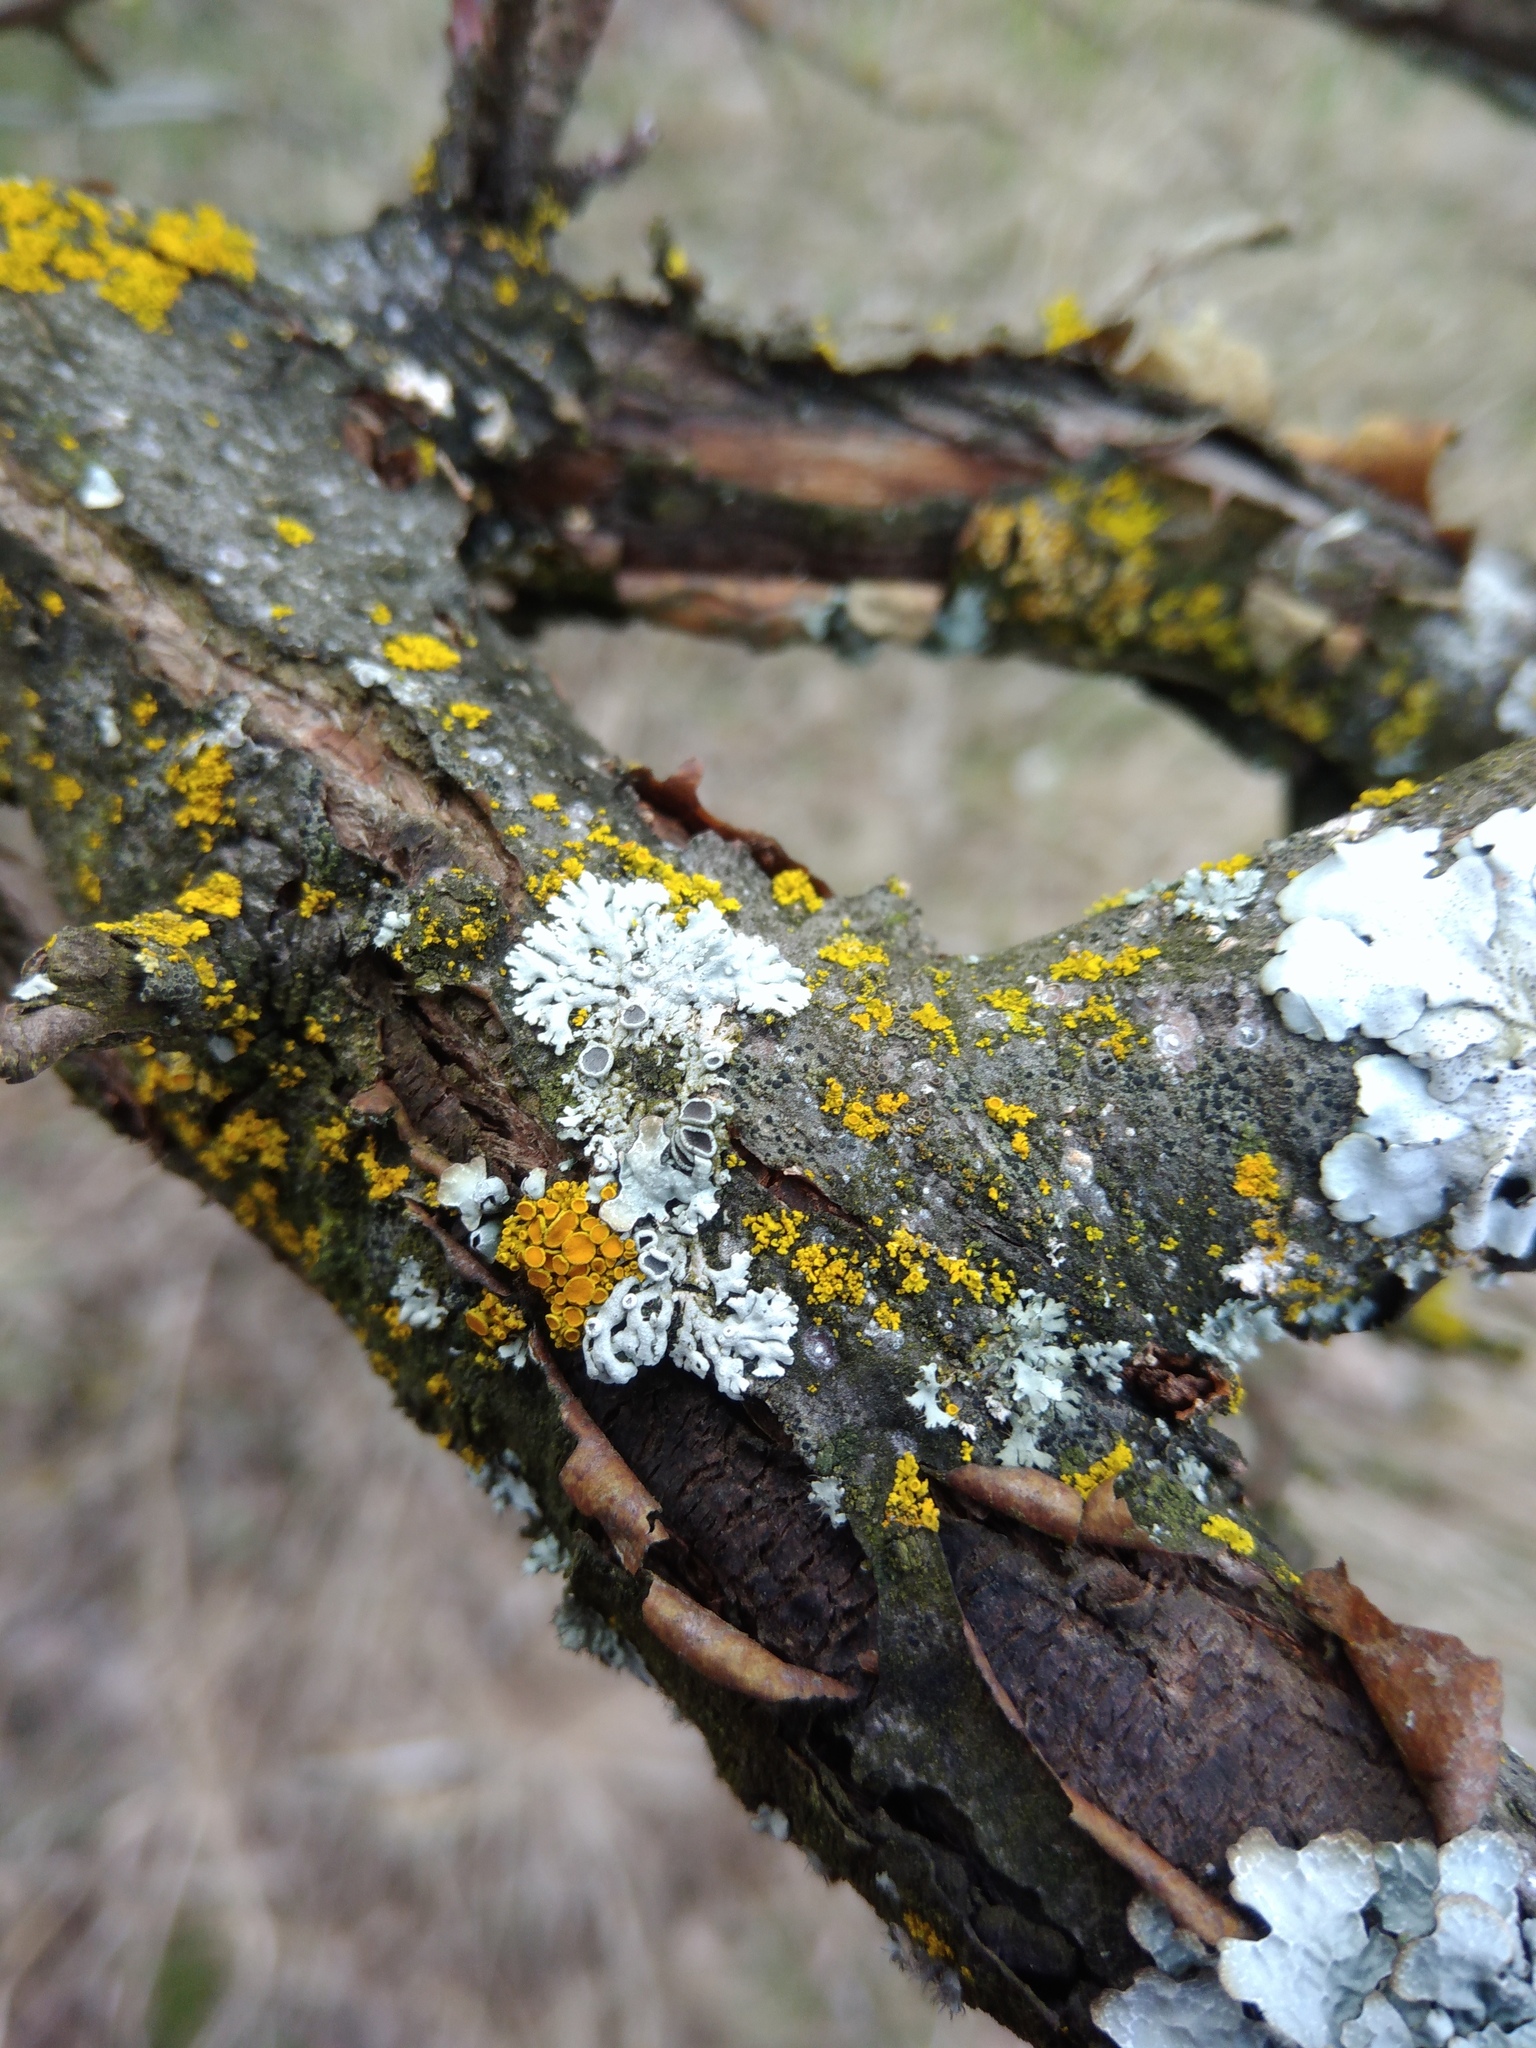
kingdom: Fungi
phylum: Ascomycota
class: Lecanoromycetes
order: Caliciales
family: Physciaceae
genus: Physcia
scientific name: Physcia stellaris
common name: Star rosette lichen
